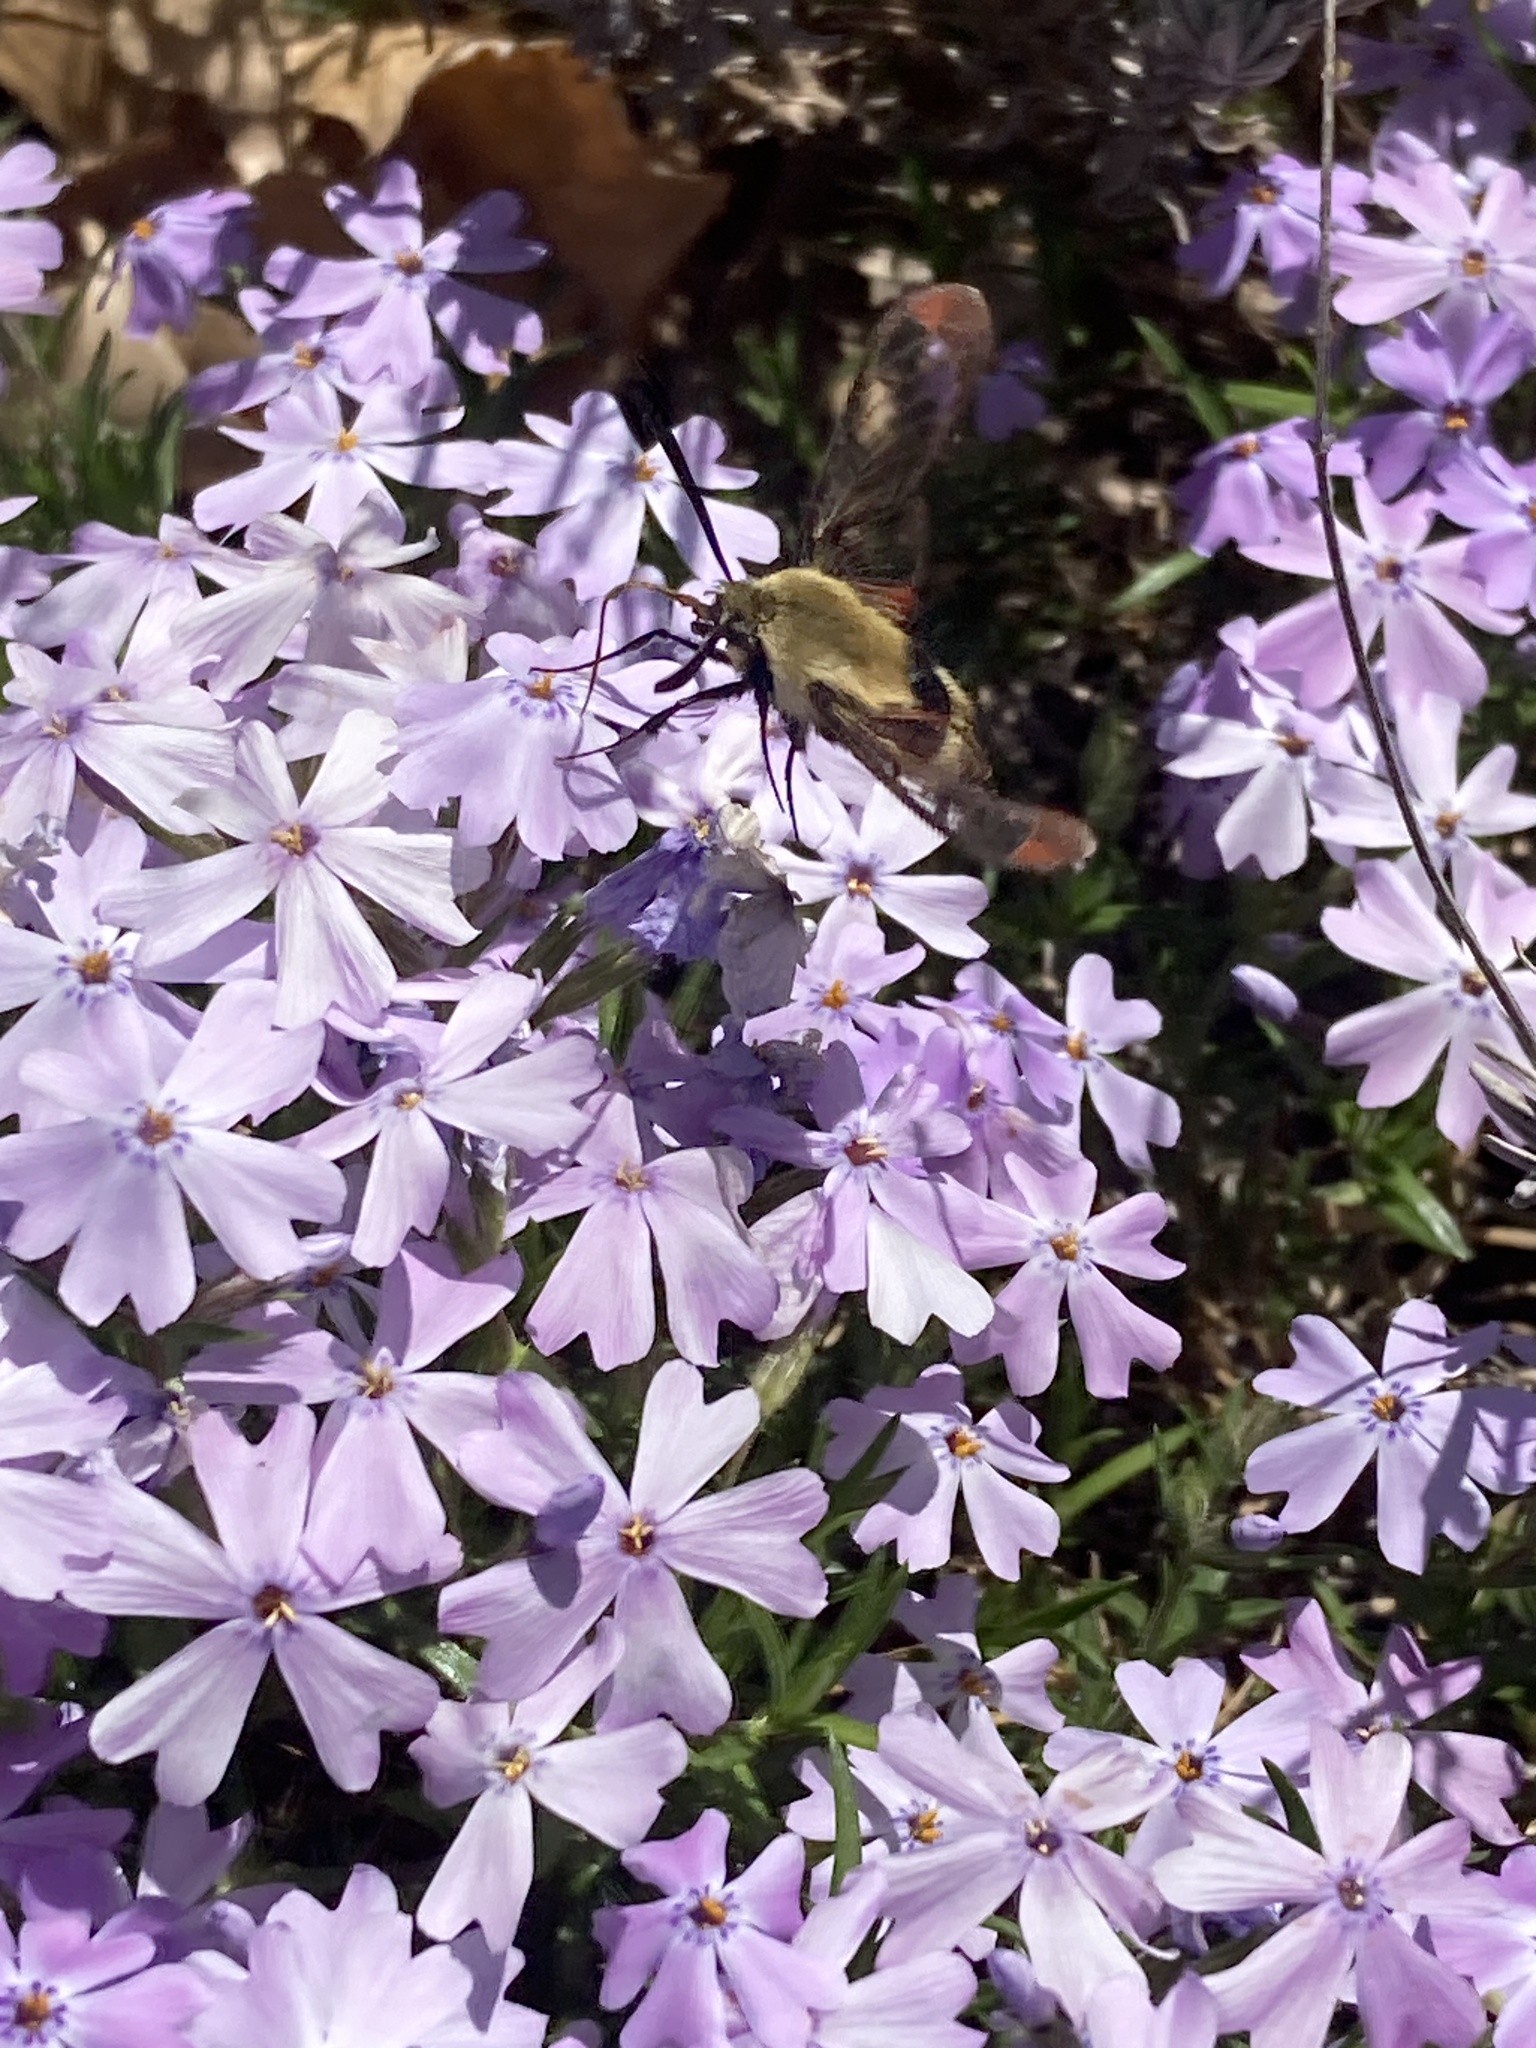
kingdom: Animalia
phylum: Arthropoda
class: Insecta
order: Lepidoptera
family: Sphingidae
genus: Hemaris
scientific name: Hemaris diffinis
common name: Bumblebee moth
